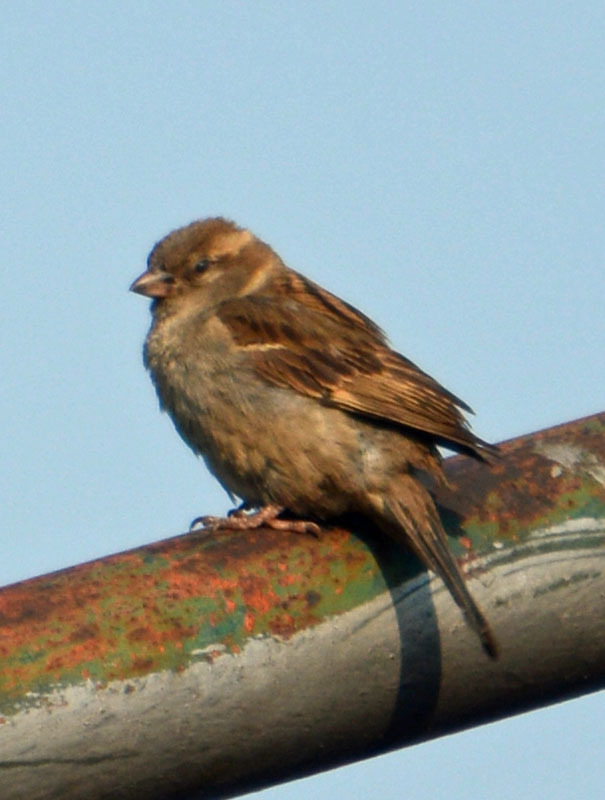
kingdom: Animalia
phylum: Chordata
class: Aves
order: Passeriformes
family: Passeridae
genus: Passer
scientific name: Passer domesticus
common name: House sparrow
